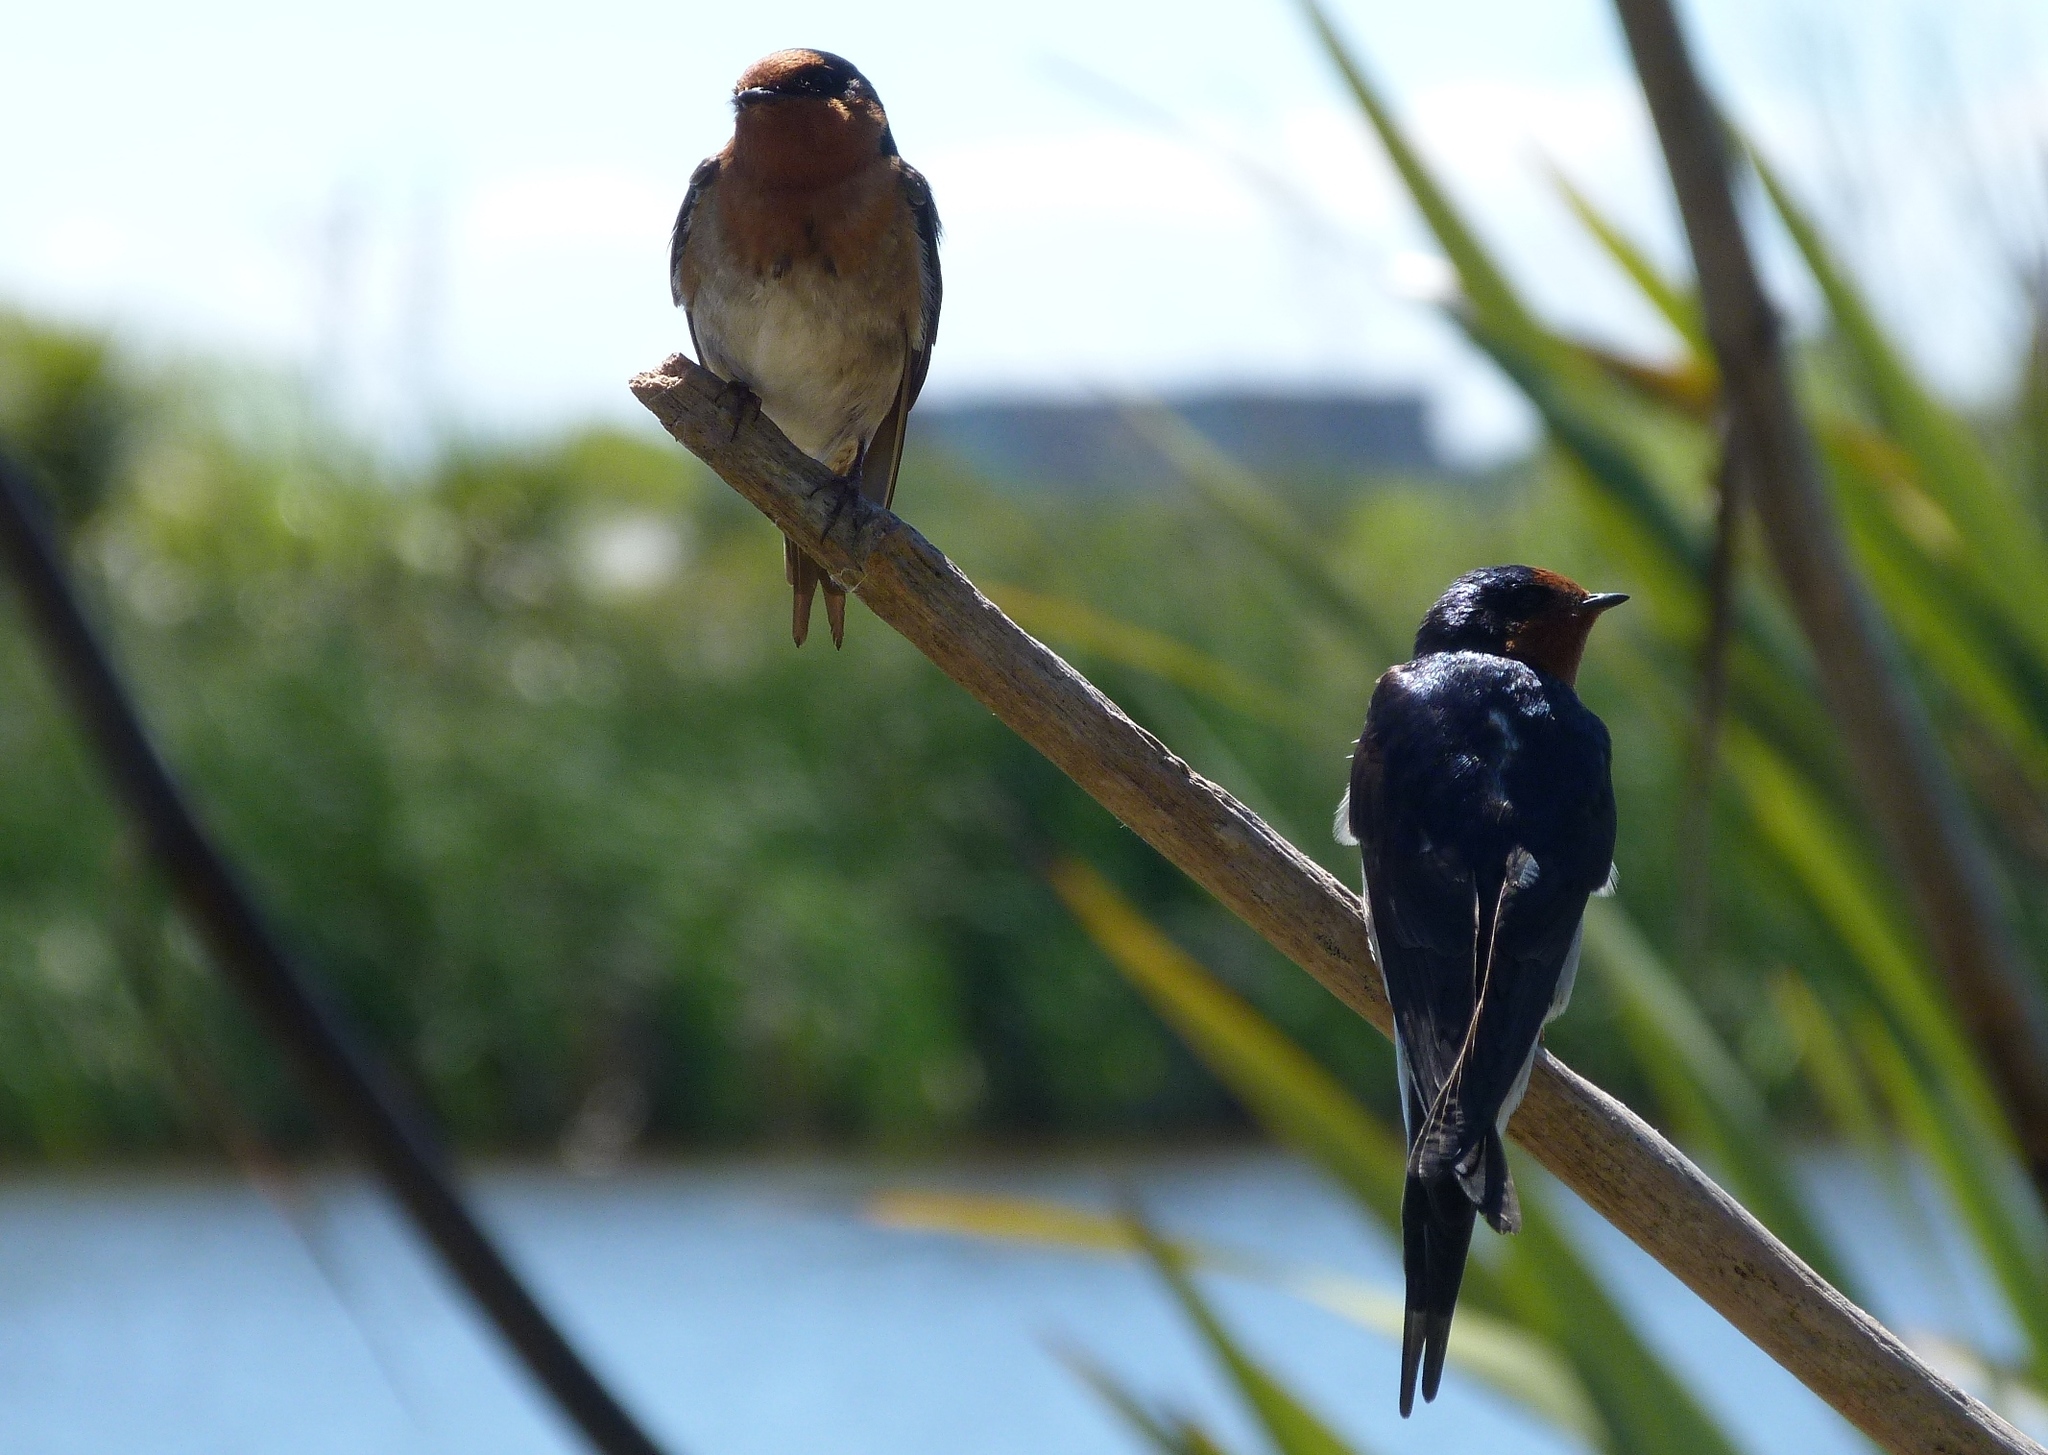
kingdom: Animalia
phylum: Chordata
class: Aves
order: Passeriformes
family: Hirundinidae
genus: Hirundo
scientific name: Hirundo neoxena
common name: Welcome swallow
